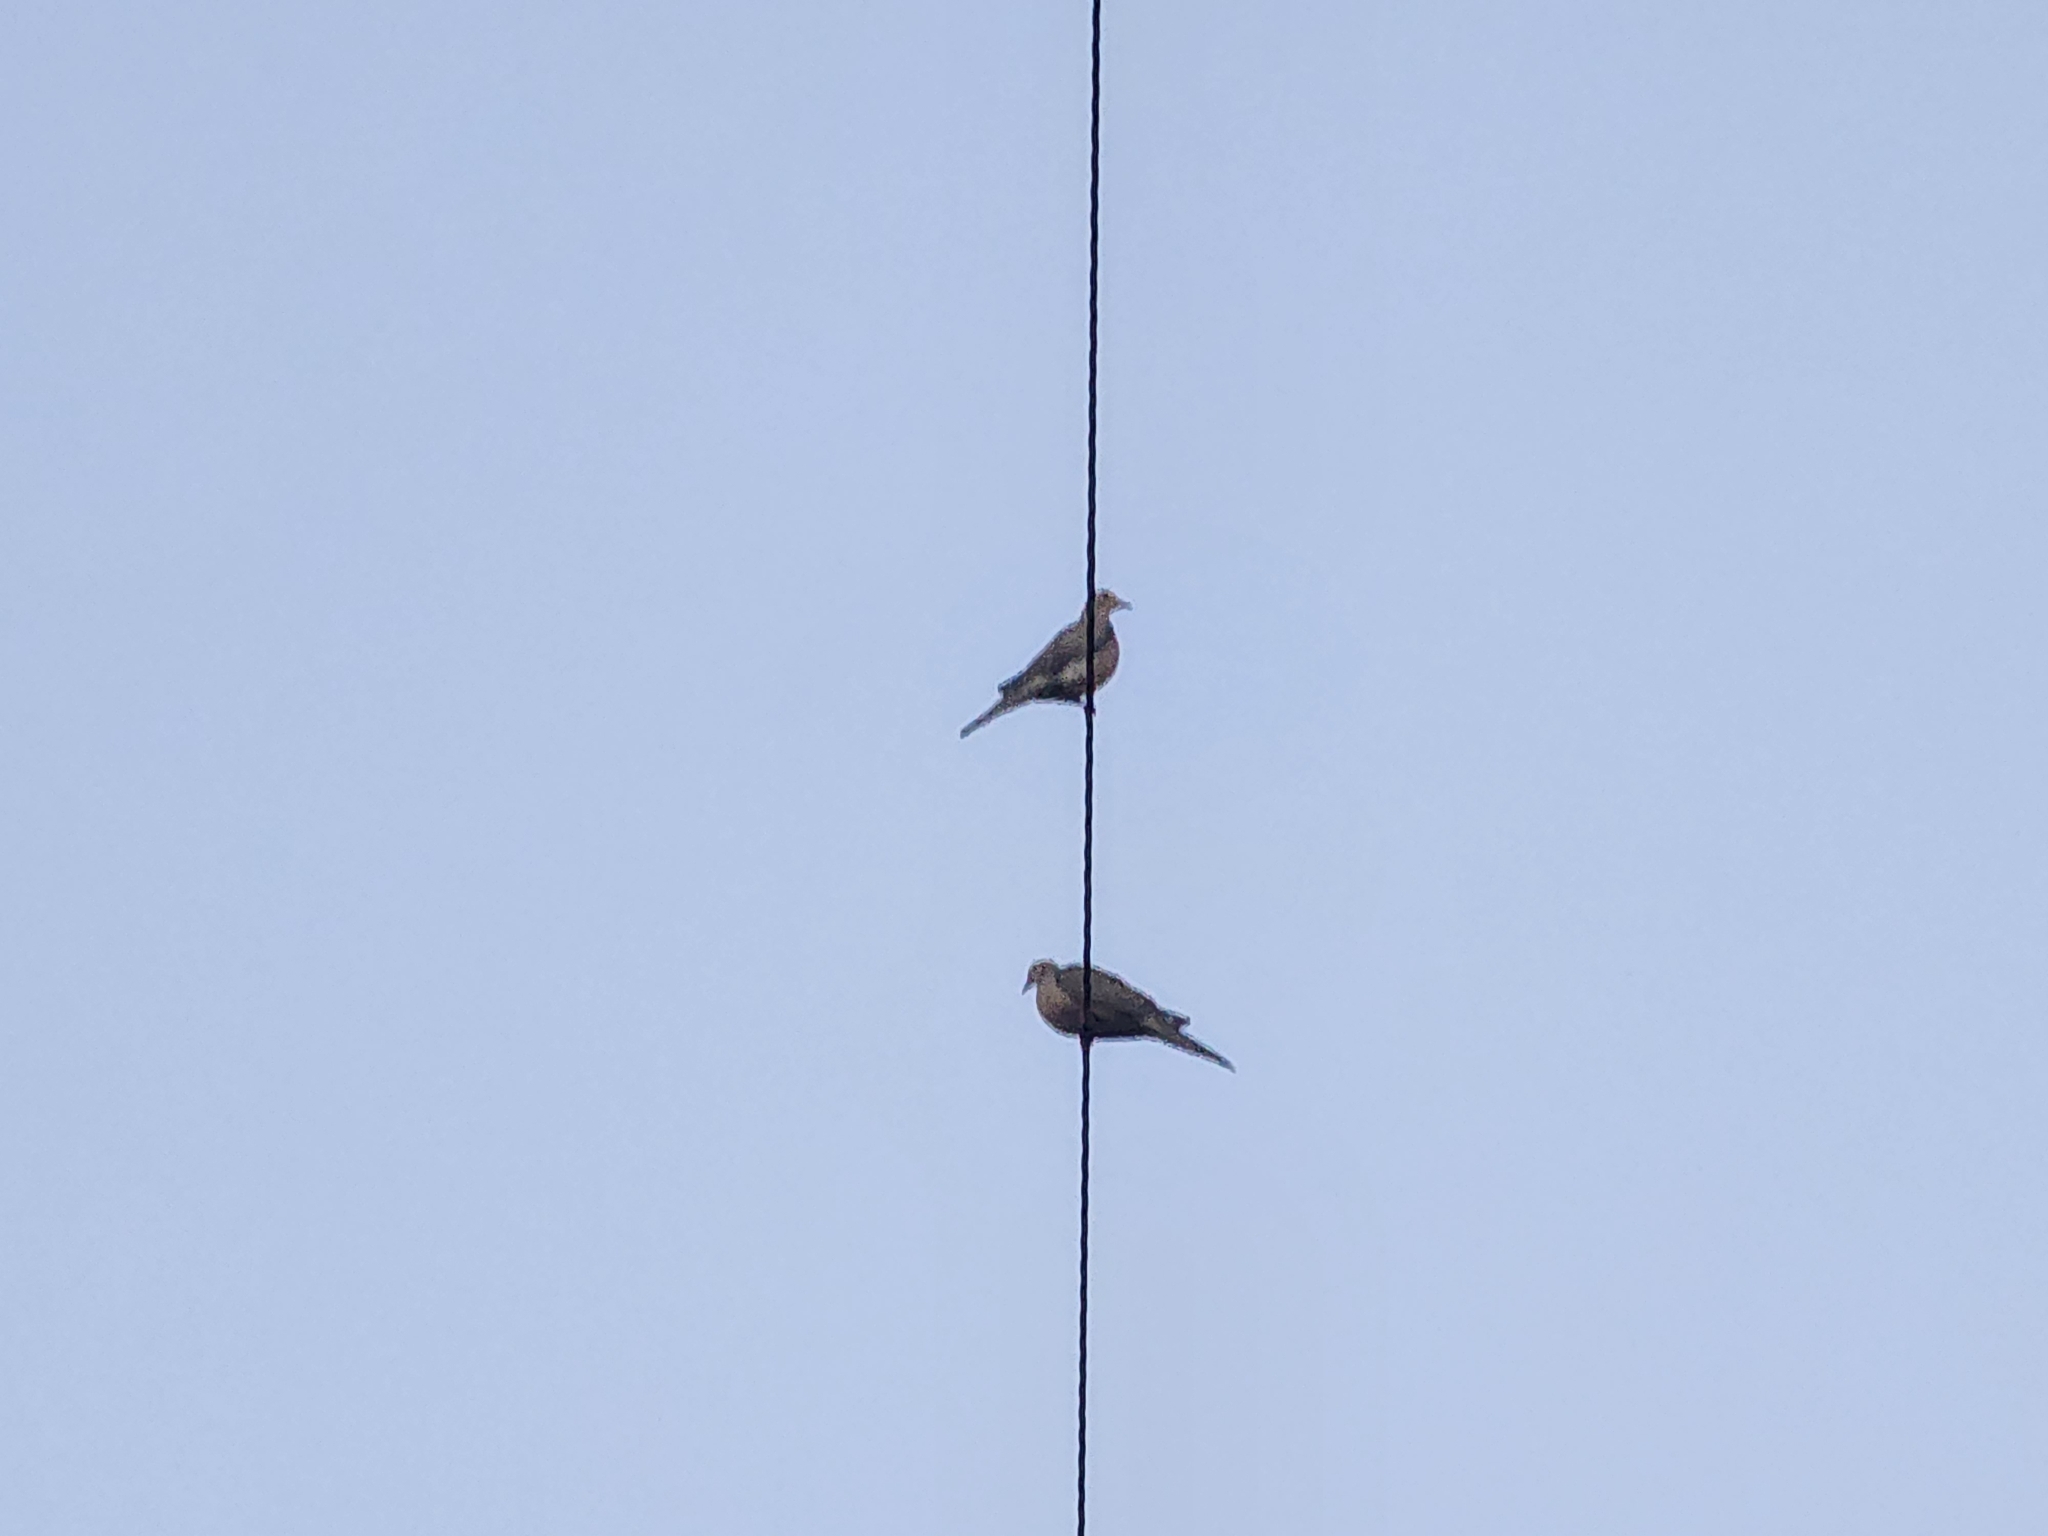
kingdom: Animalia
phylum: Chordata
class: Aves
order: Columbiformes
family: Columbidae
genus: Zenaida
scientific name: Zenaida macroura
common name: Mourning dove
